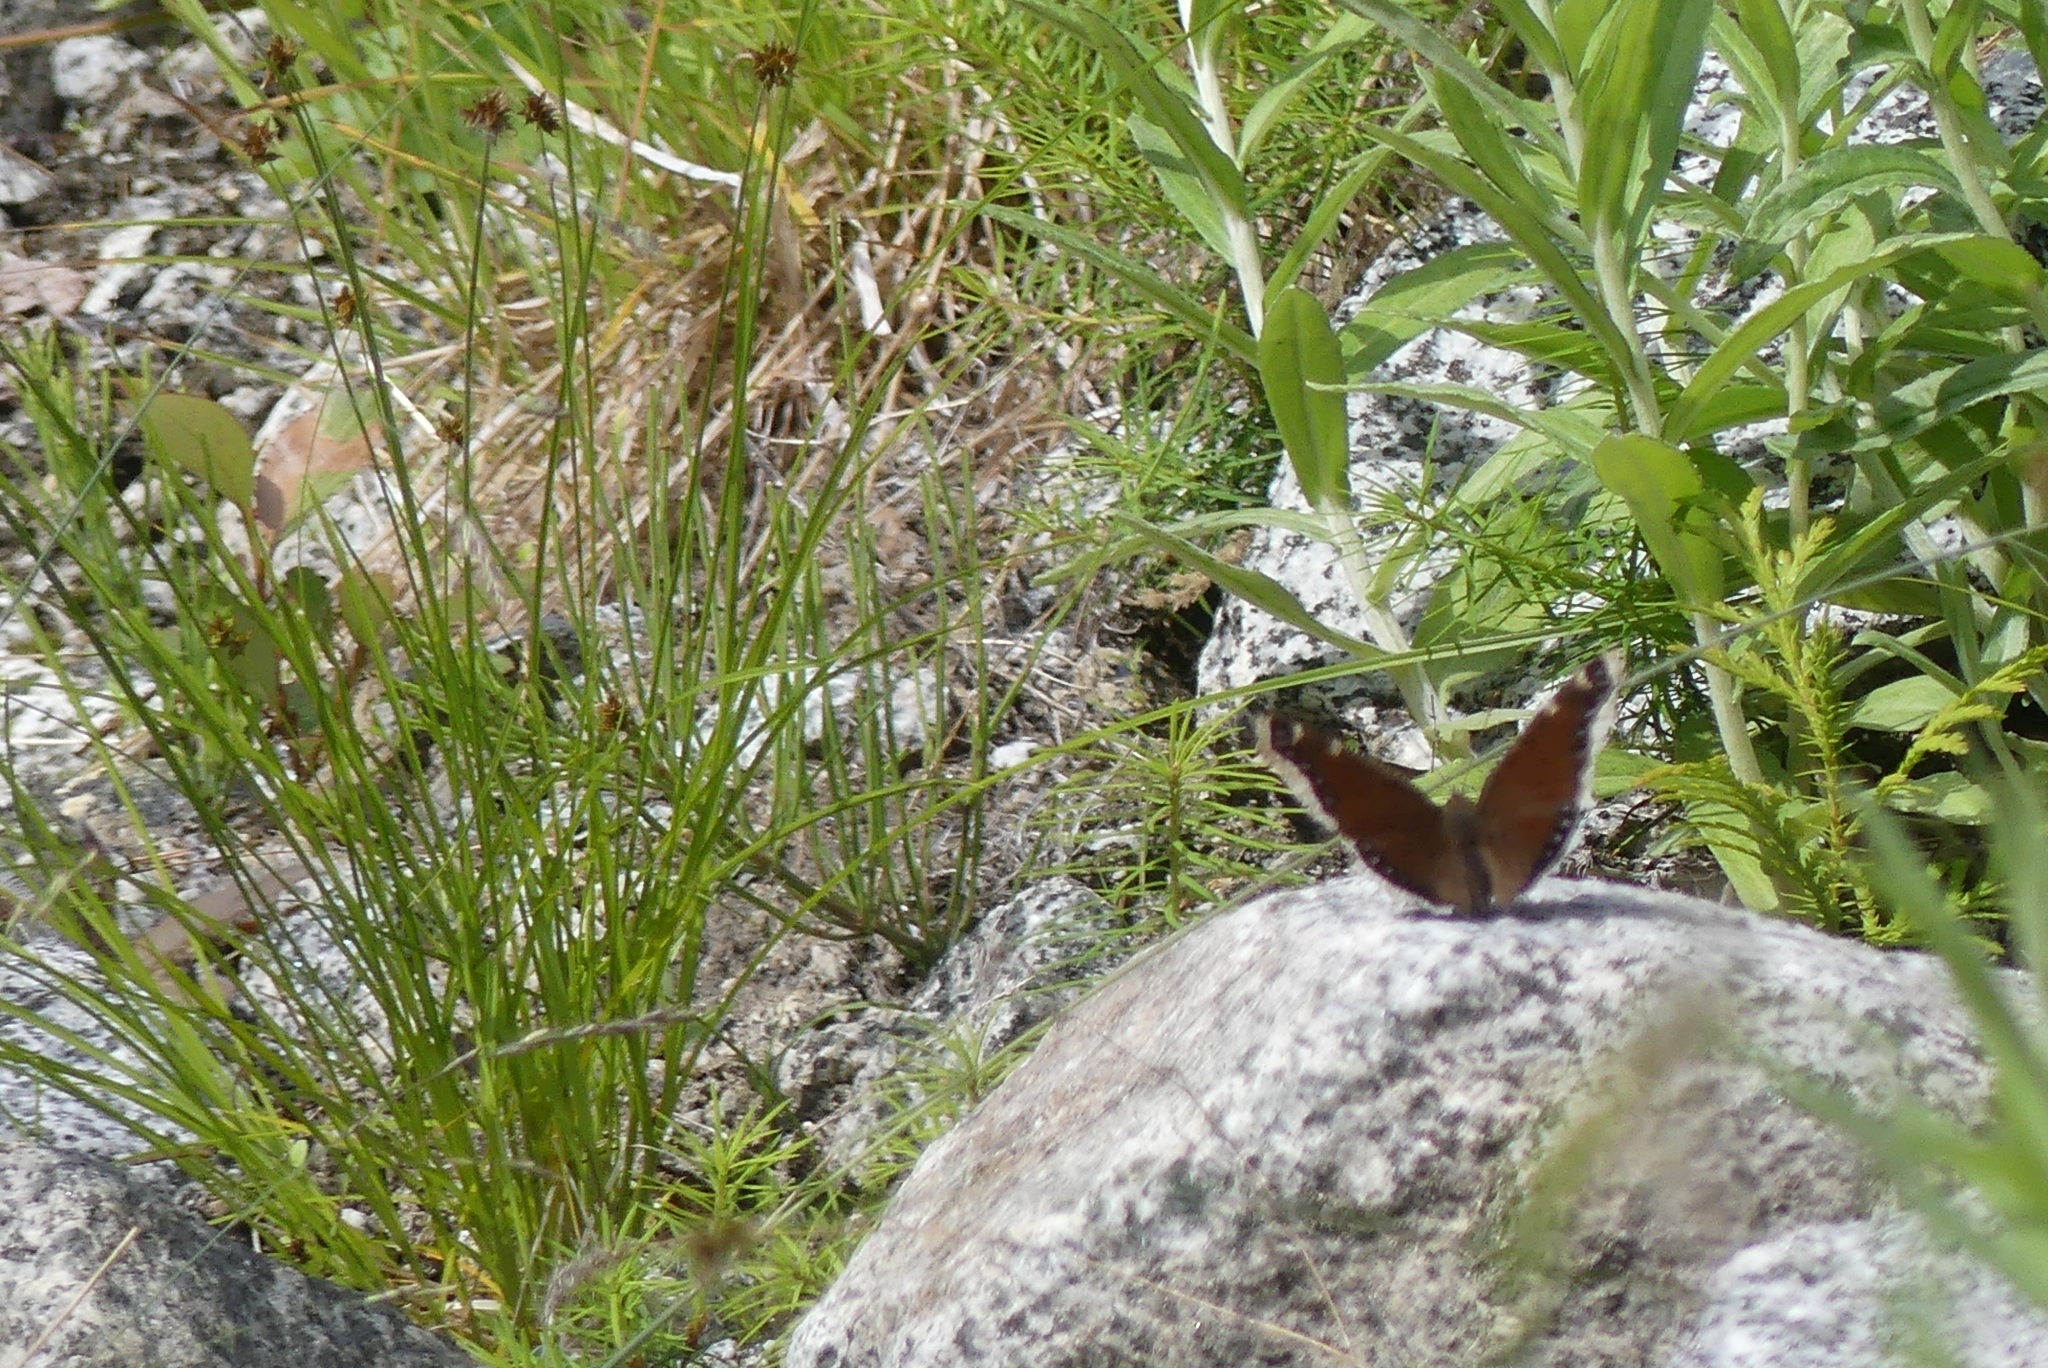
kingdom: Animalia
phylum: Arthropoda
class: Insecta
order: Lepidoptera
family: Nymphalidae
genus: Nymphalis
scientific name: Nymphalis antiopa
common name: Camberwell beauty
